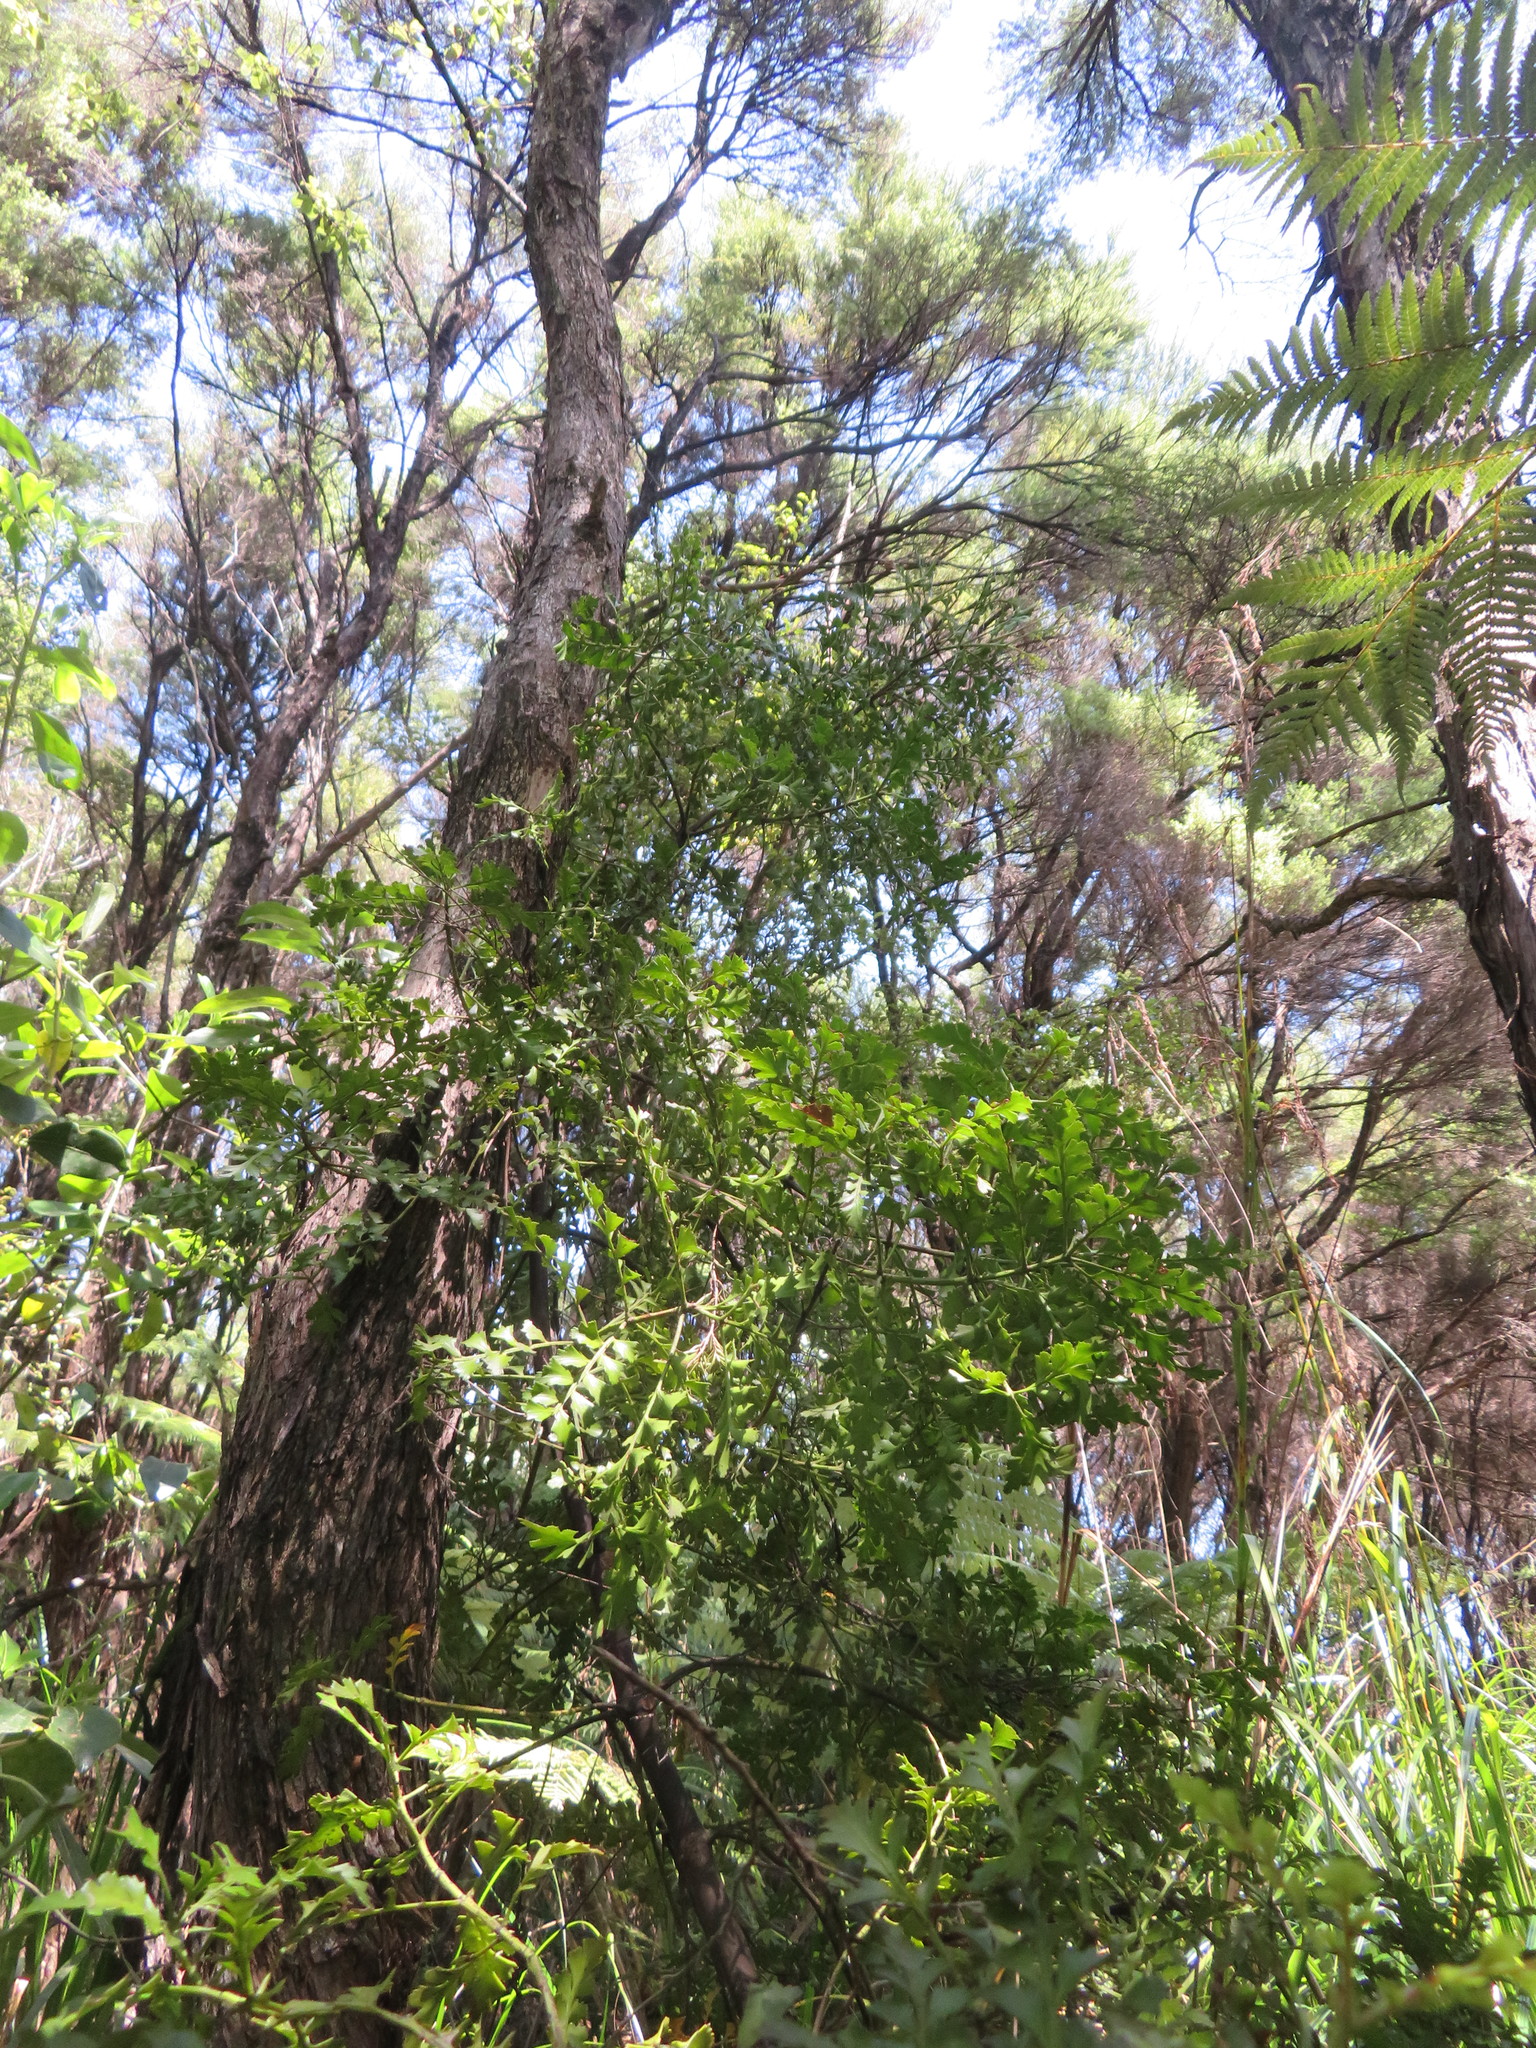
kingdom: Plantae
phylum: Tracheophyta
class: Pinopsida
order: Pinales
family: Phyllocladaceae
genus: Phyllocladus
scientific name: Phyllocladus trichomanoides
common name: Celery pine
